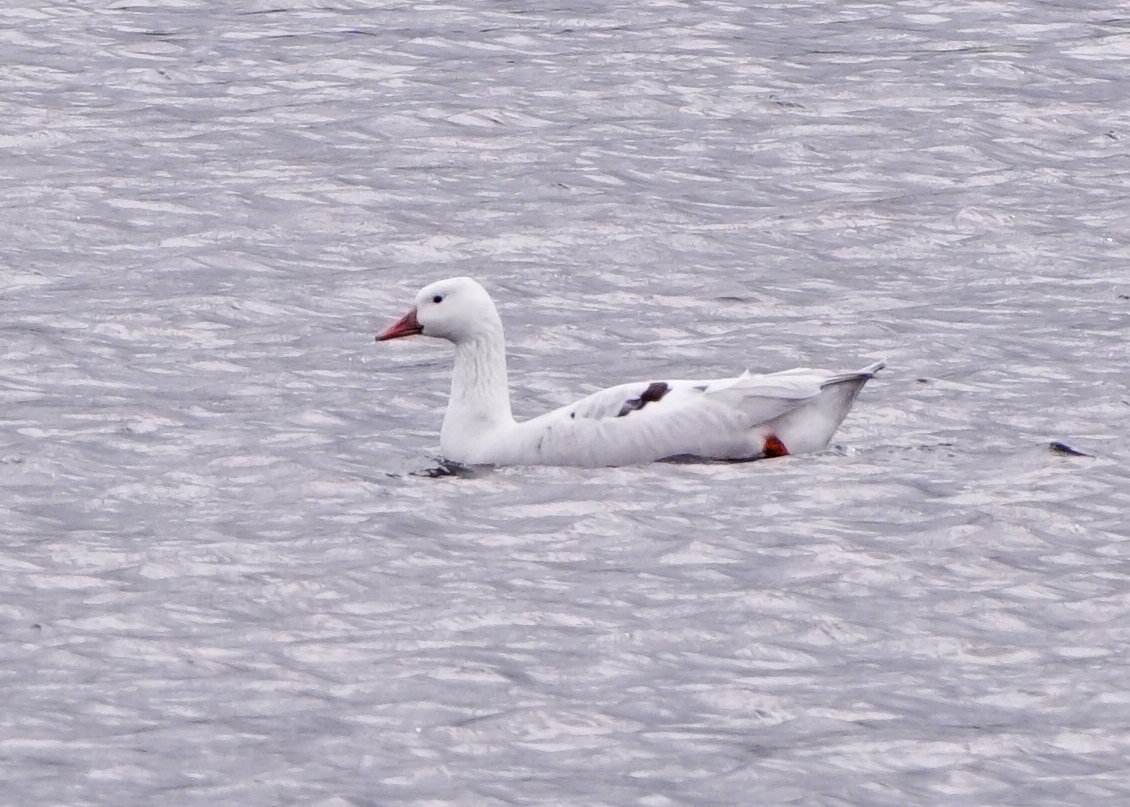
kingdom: Animalia
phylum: Chordata
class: Aves
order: Anseriformes
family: Anatidae
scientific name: Anatidae
